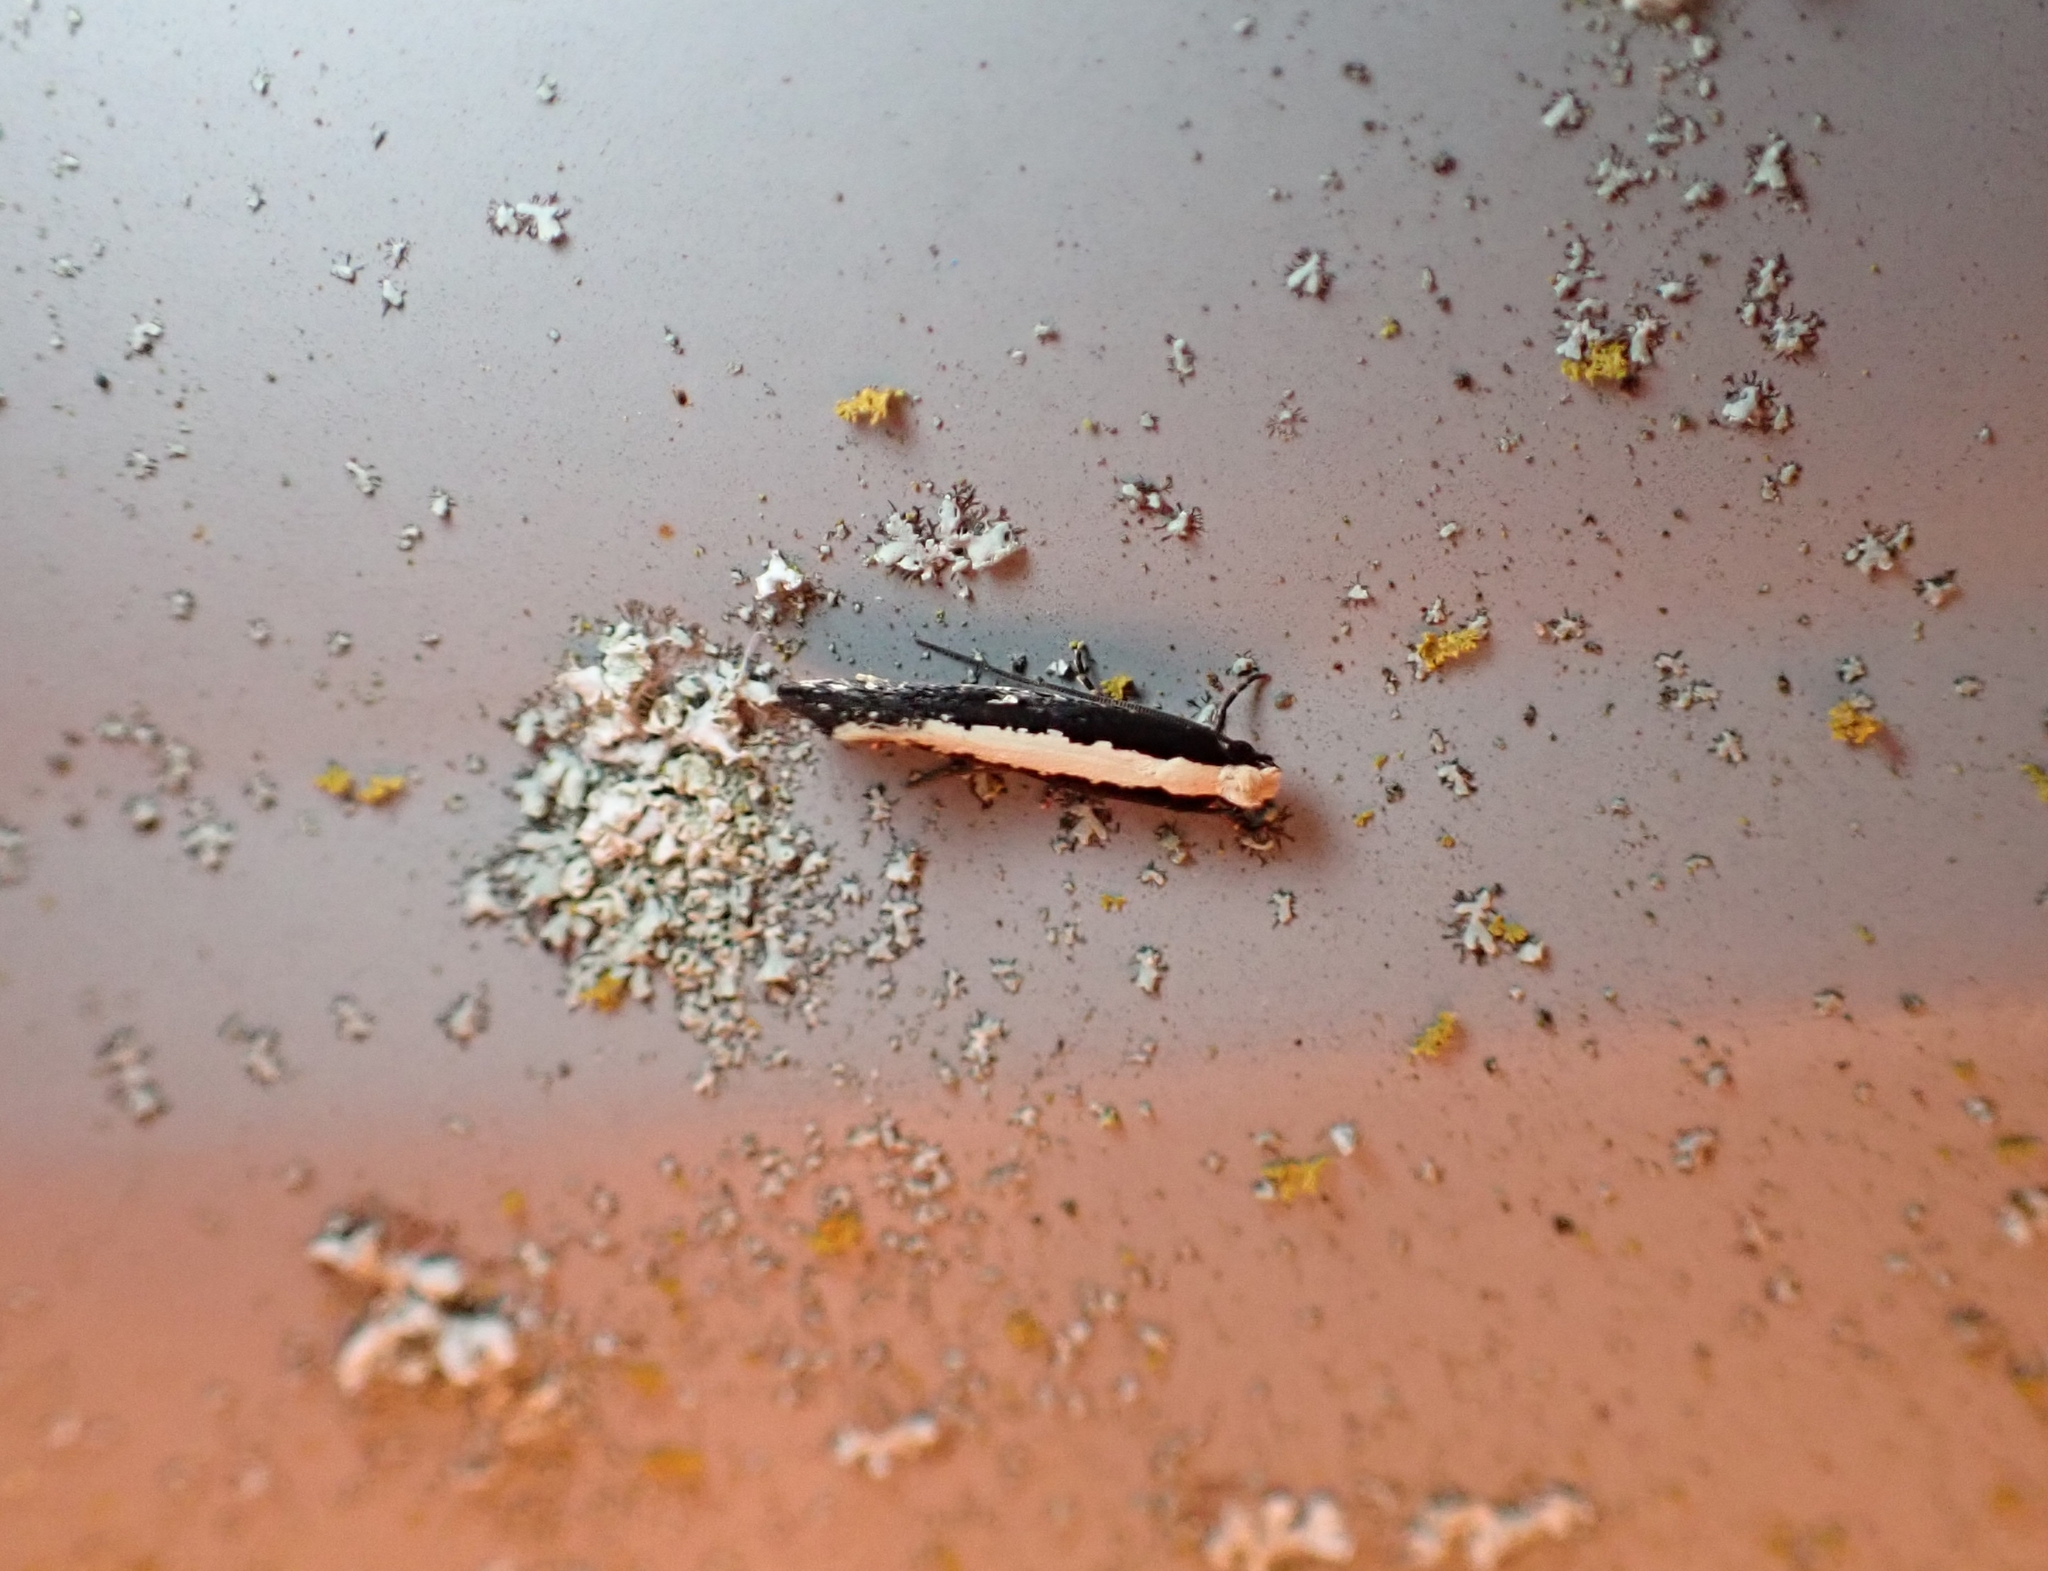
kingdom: Animalia
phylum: Arthropoda
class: Insecta
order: Lepidoptera
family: Tineidae
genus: Monopis
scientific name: Monopis ethelella
